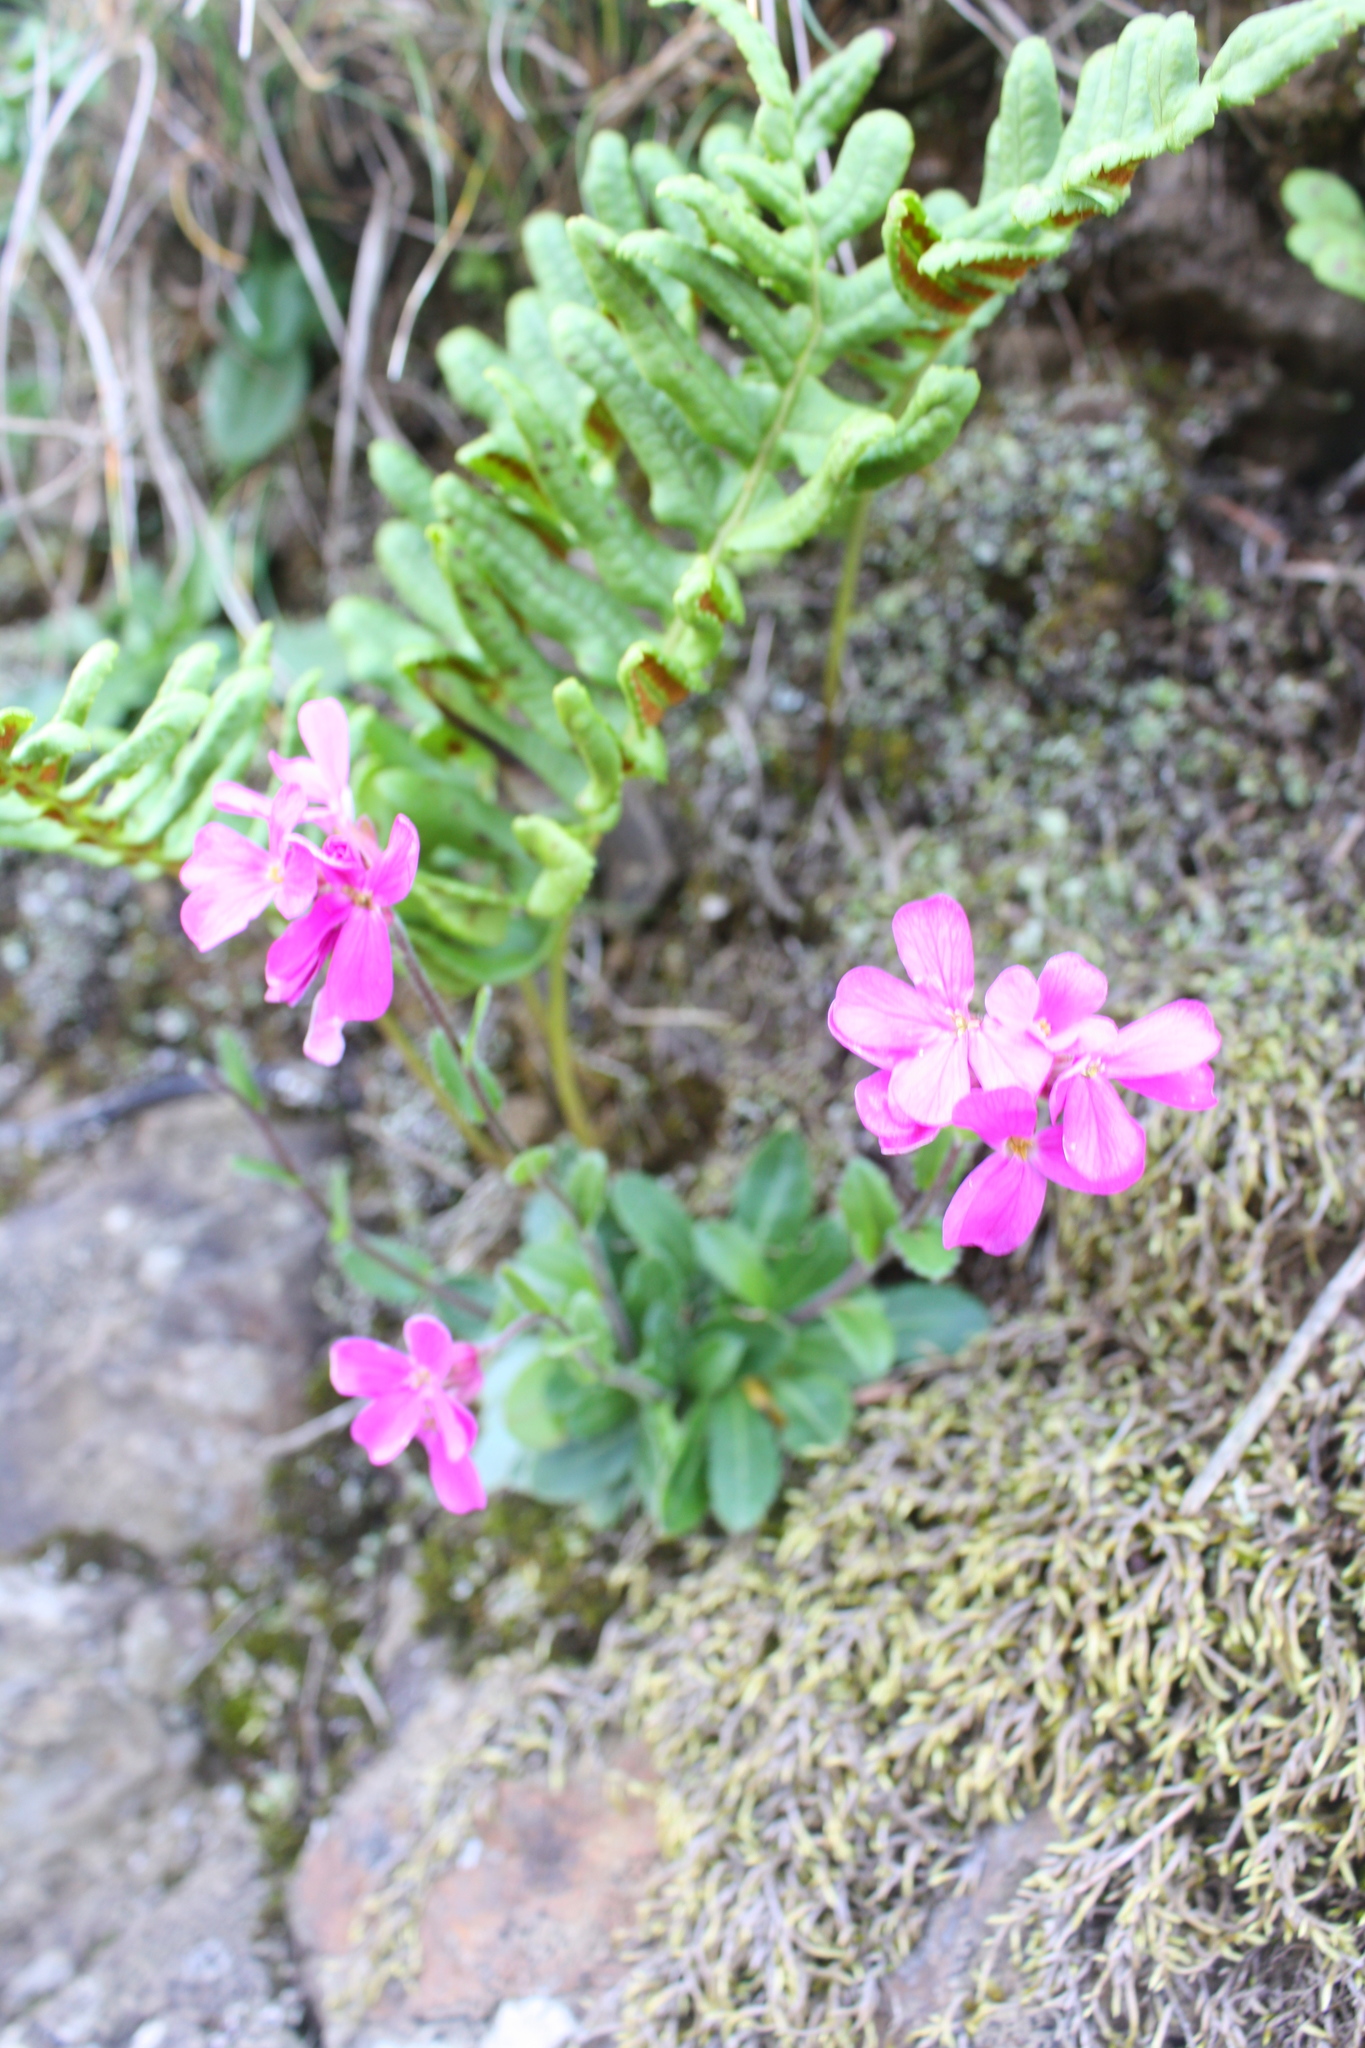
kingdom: Plantae
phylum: Tracheophyta
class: Magnoliopsida
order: Brassicales
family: Brassicaceae
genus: Arabis
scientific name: Arabis blepharophylla
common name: Rose rockcress
